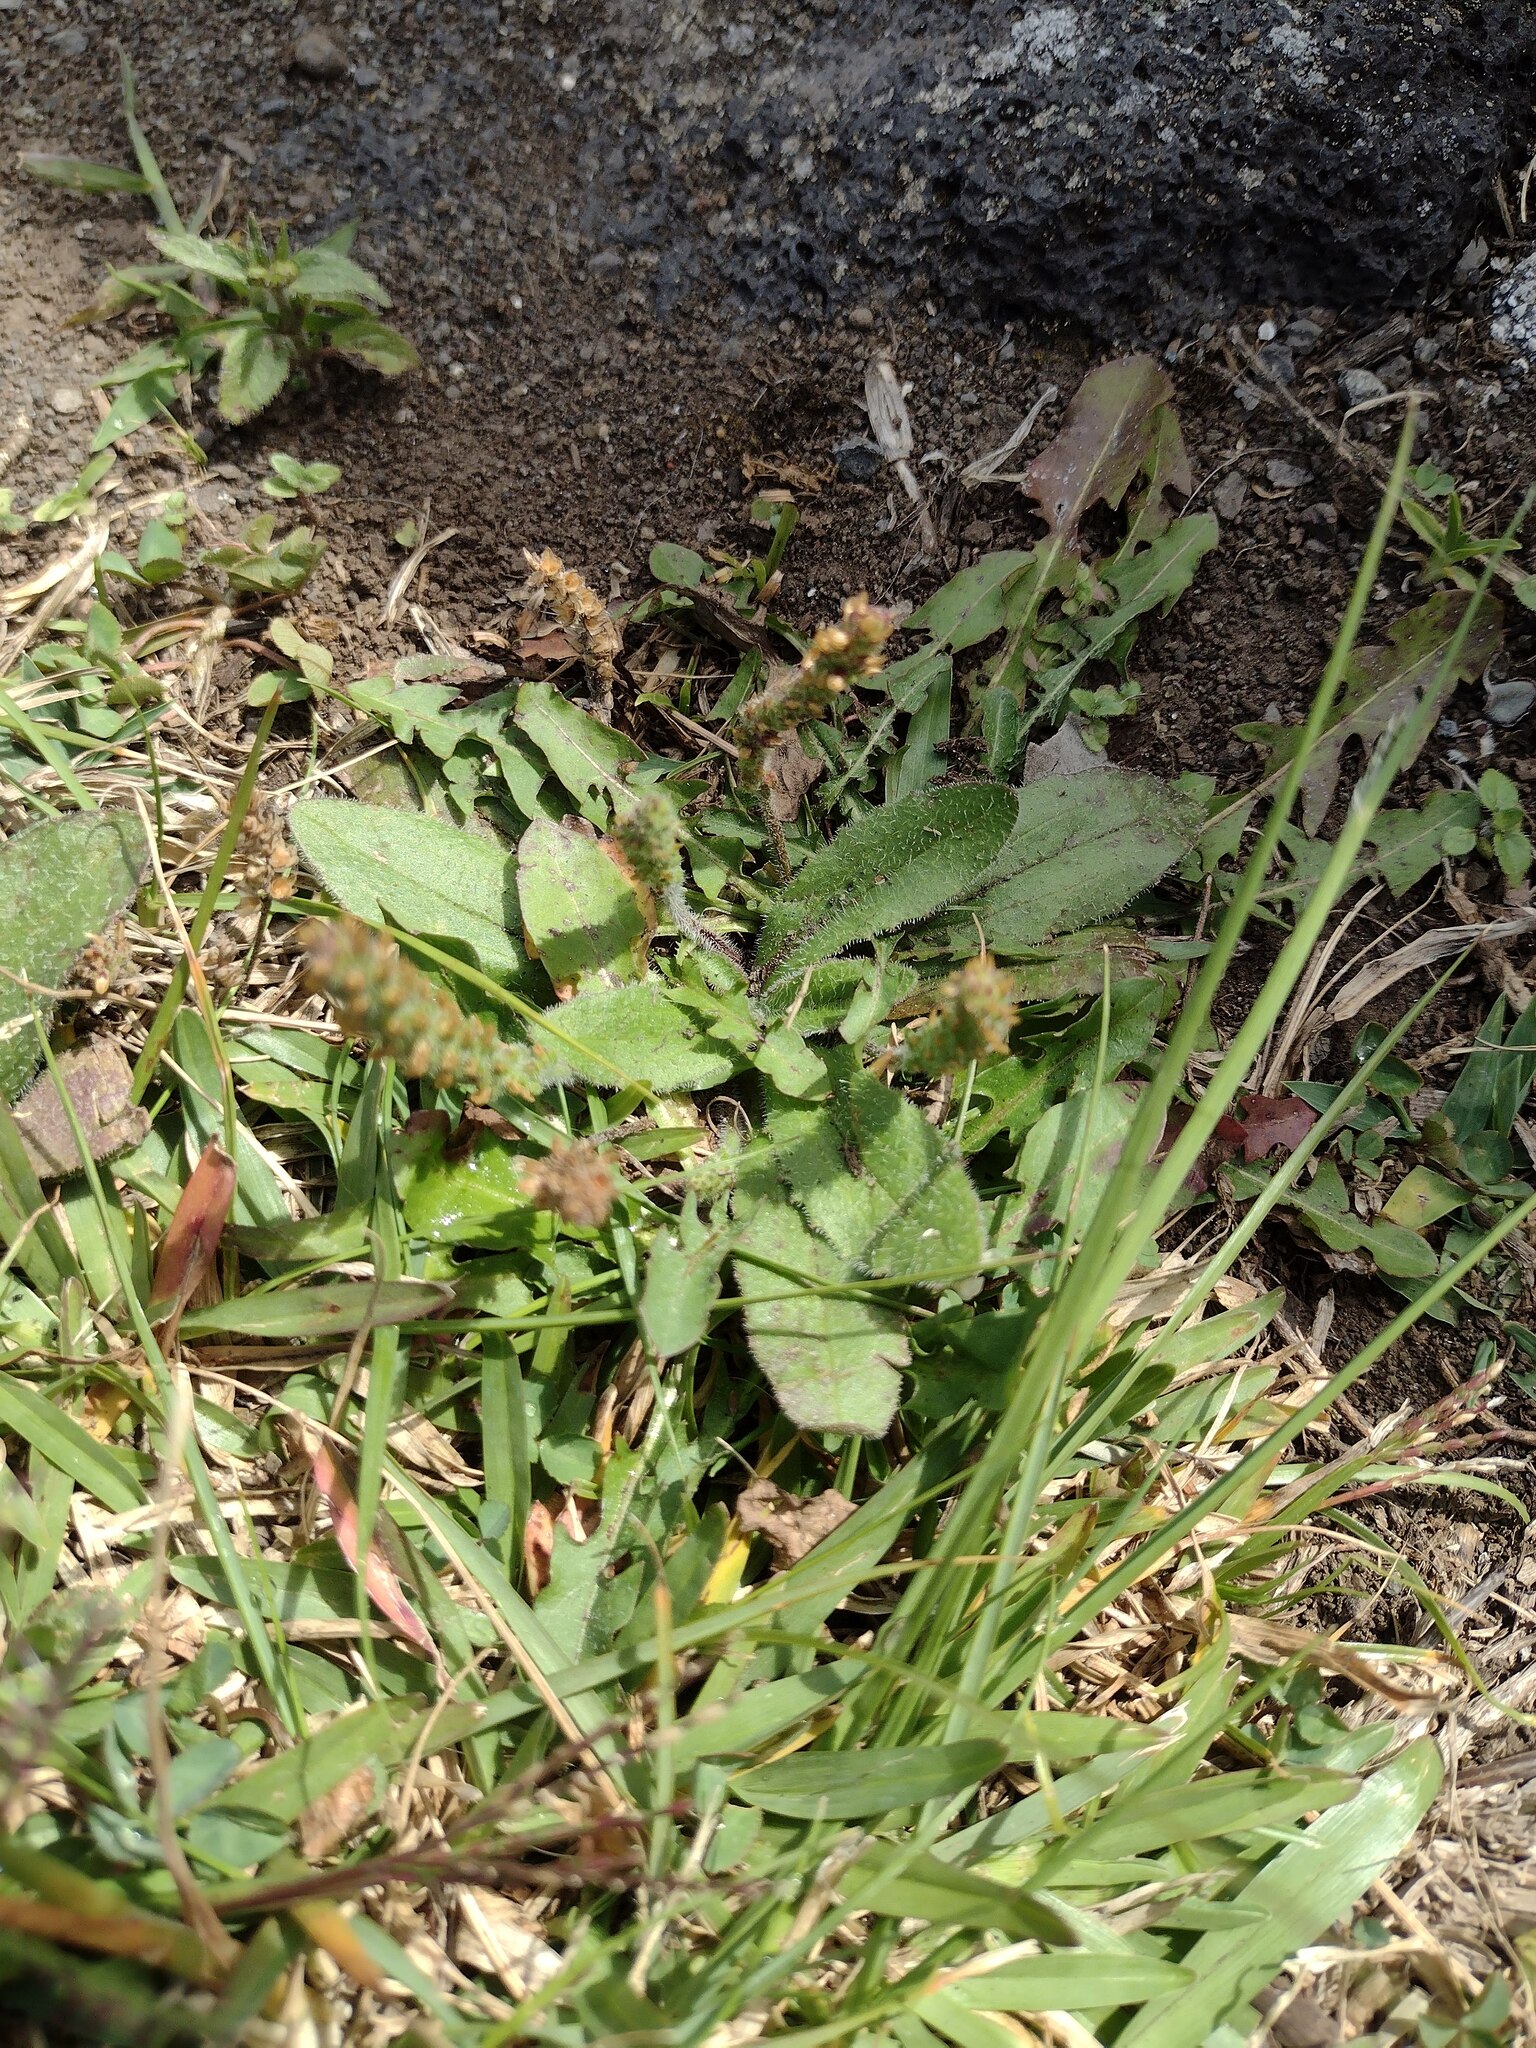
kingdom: Plantae
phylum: Tracheophyta
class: Magnoliopsida
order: Lamiales
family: Plantaginaceae
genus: Plantago
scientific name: Plantago debilis
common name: Weak plantain
